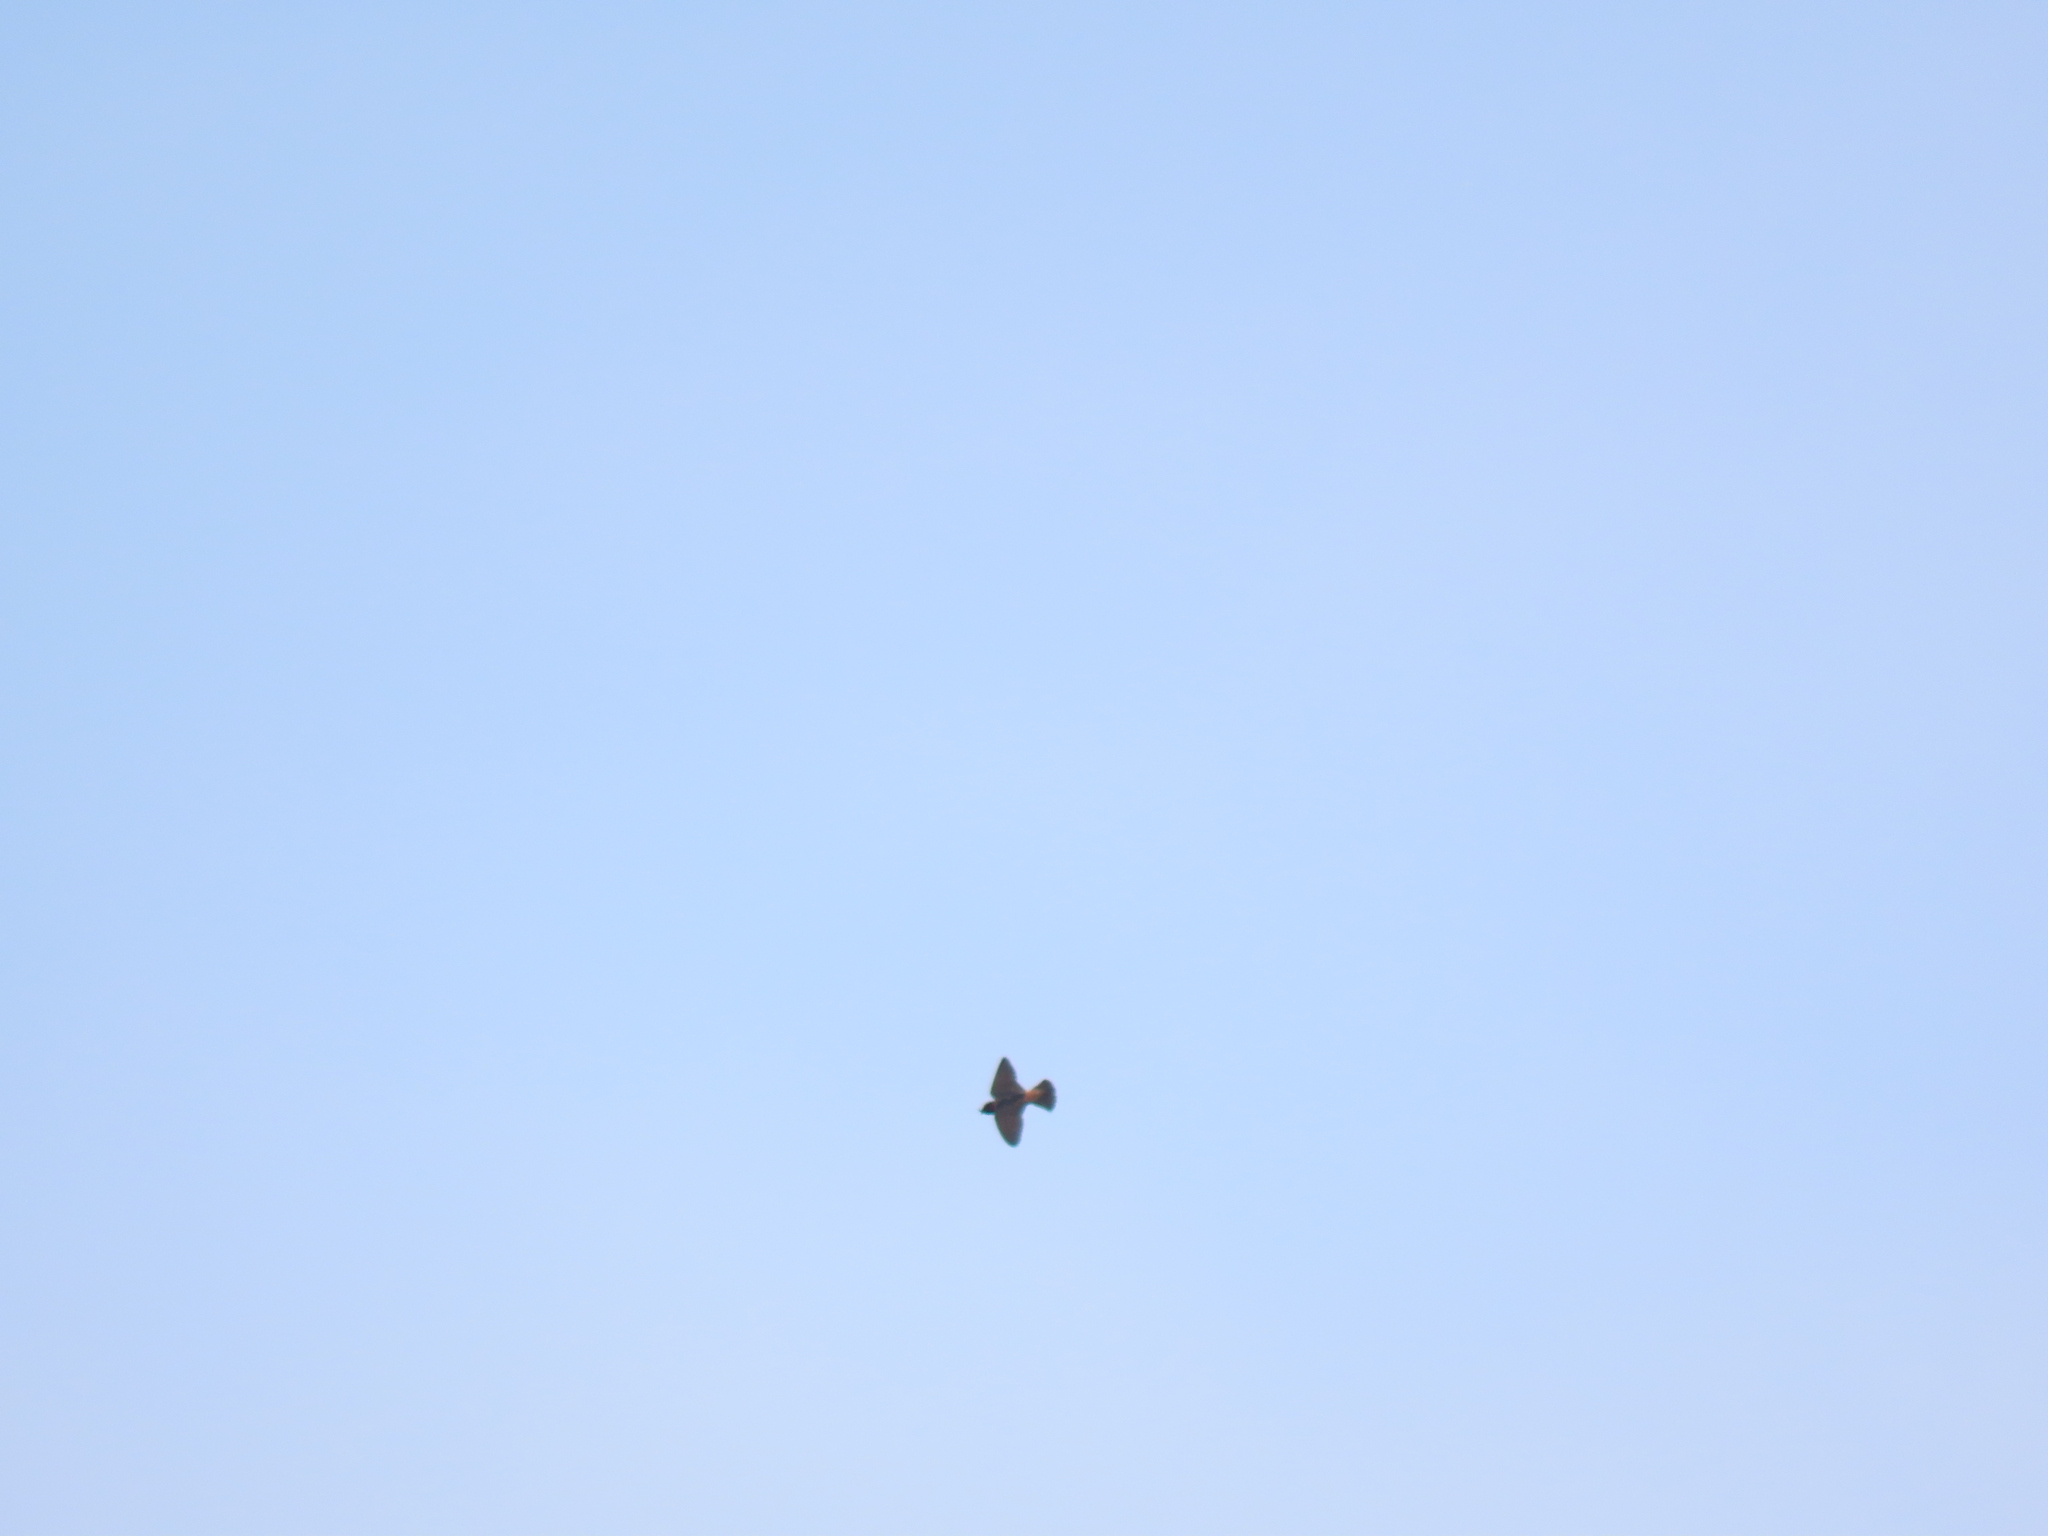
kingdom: Animalia
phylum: Chordata
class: Aves
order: Passeriformes
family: Hirundinidae
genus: Petrochelidon
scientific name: Petrochelidon pyrrhonota
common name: American cliff swallow
